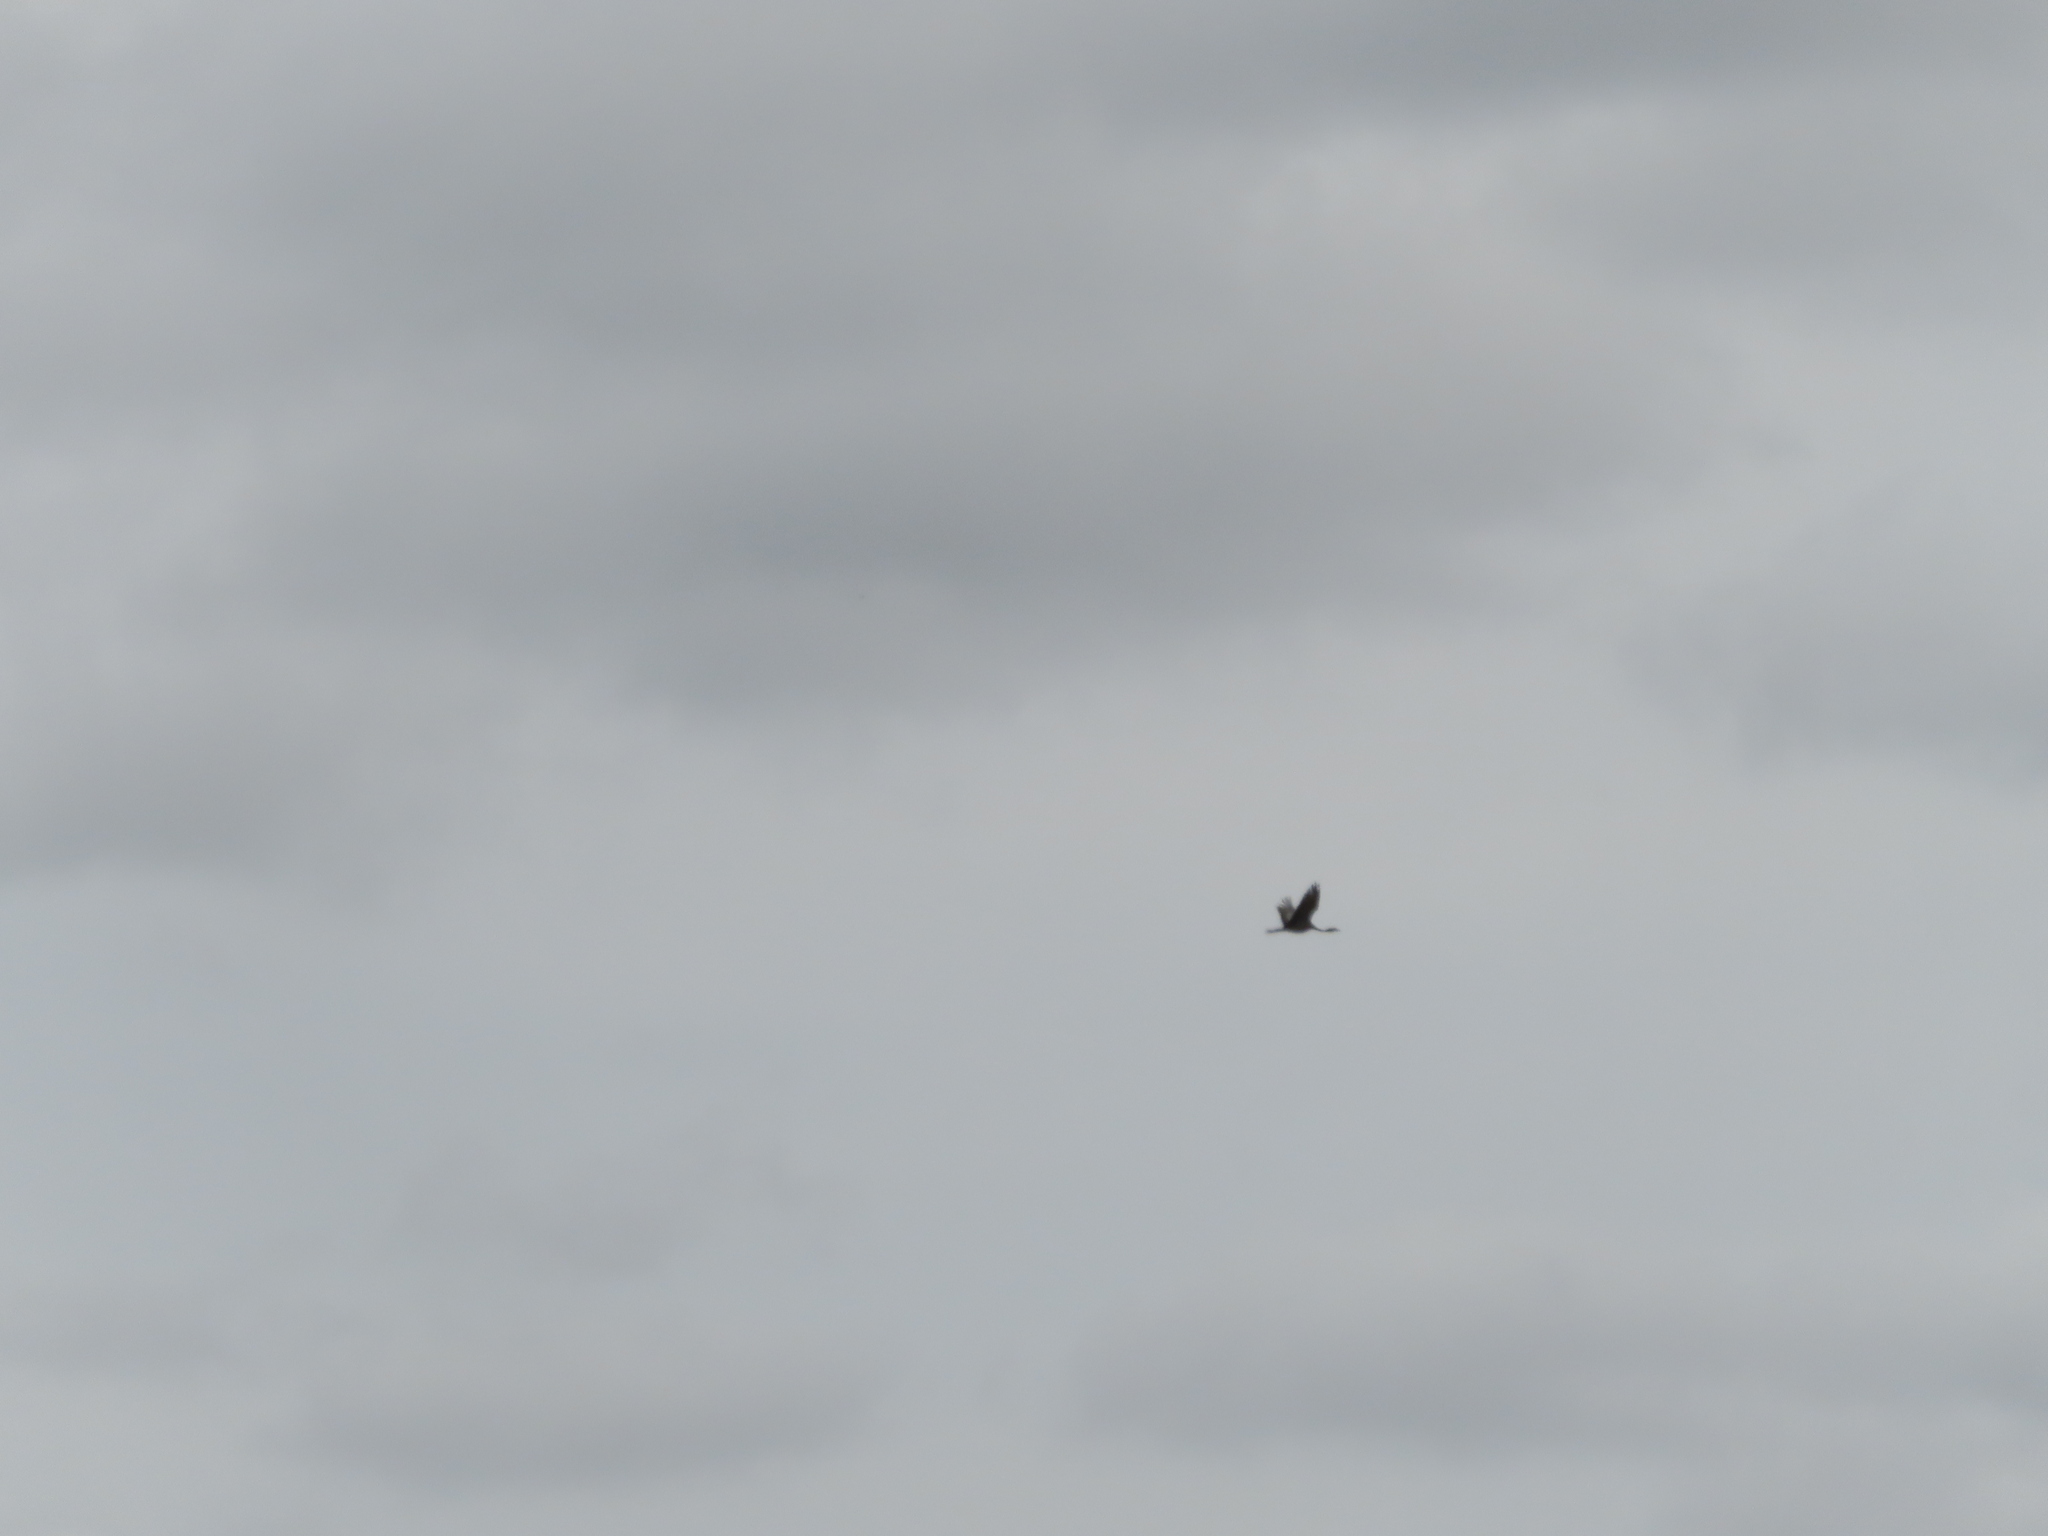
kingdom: Animalia
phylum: Chordata
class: Aves
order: Gruiformes
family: Gruidae
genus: Anthropoides
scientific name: Anthropoides paradiseus
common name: Blue crane
